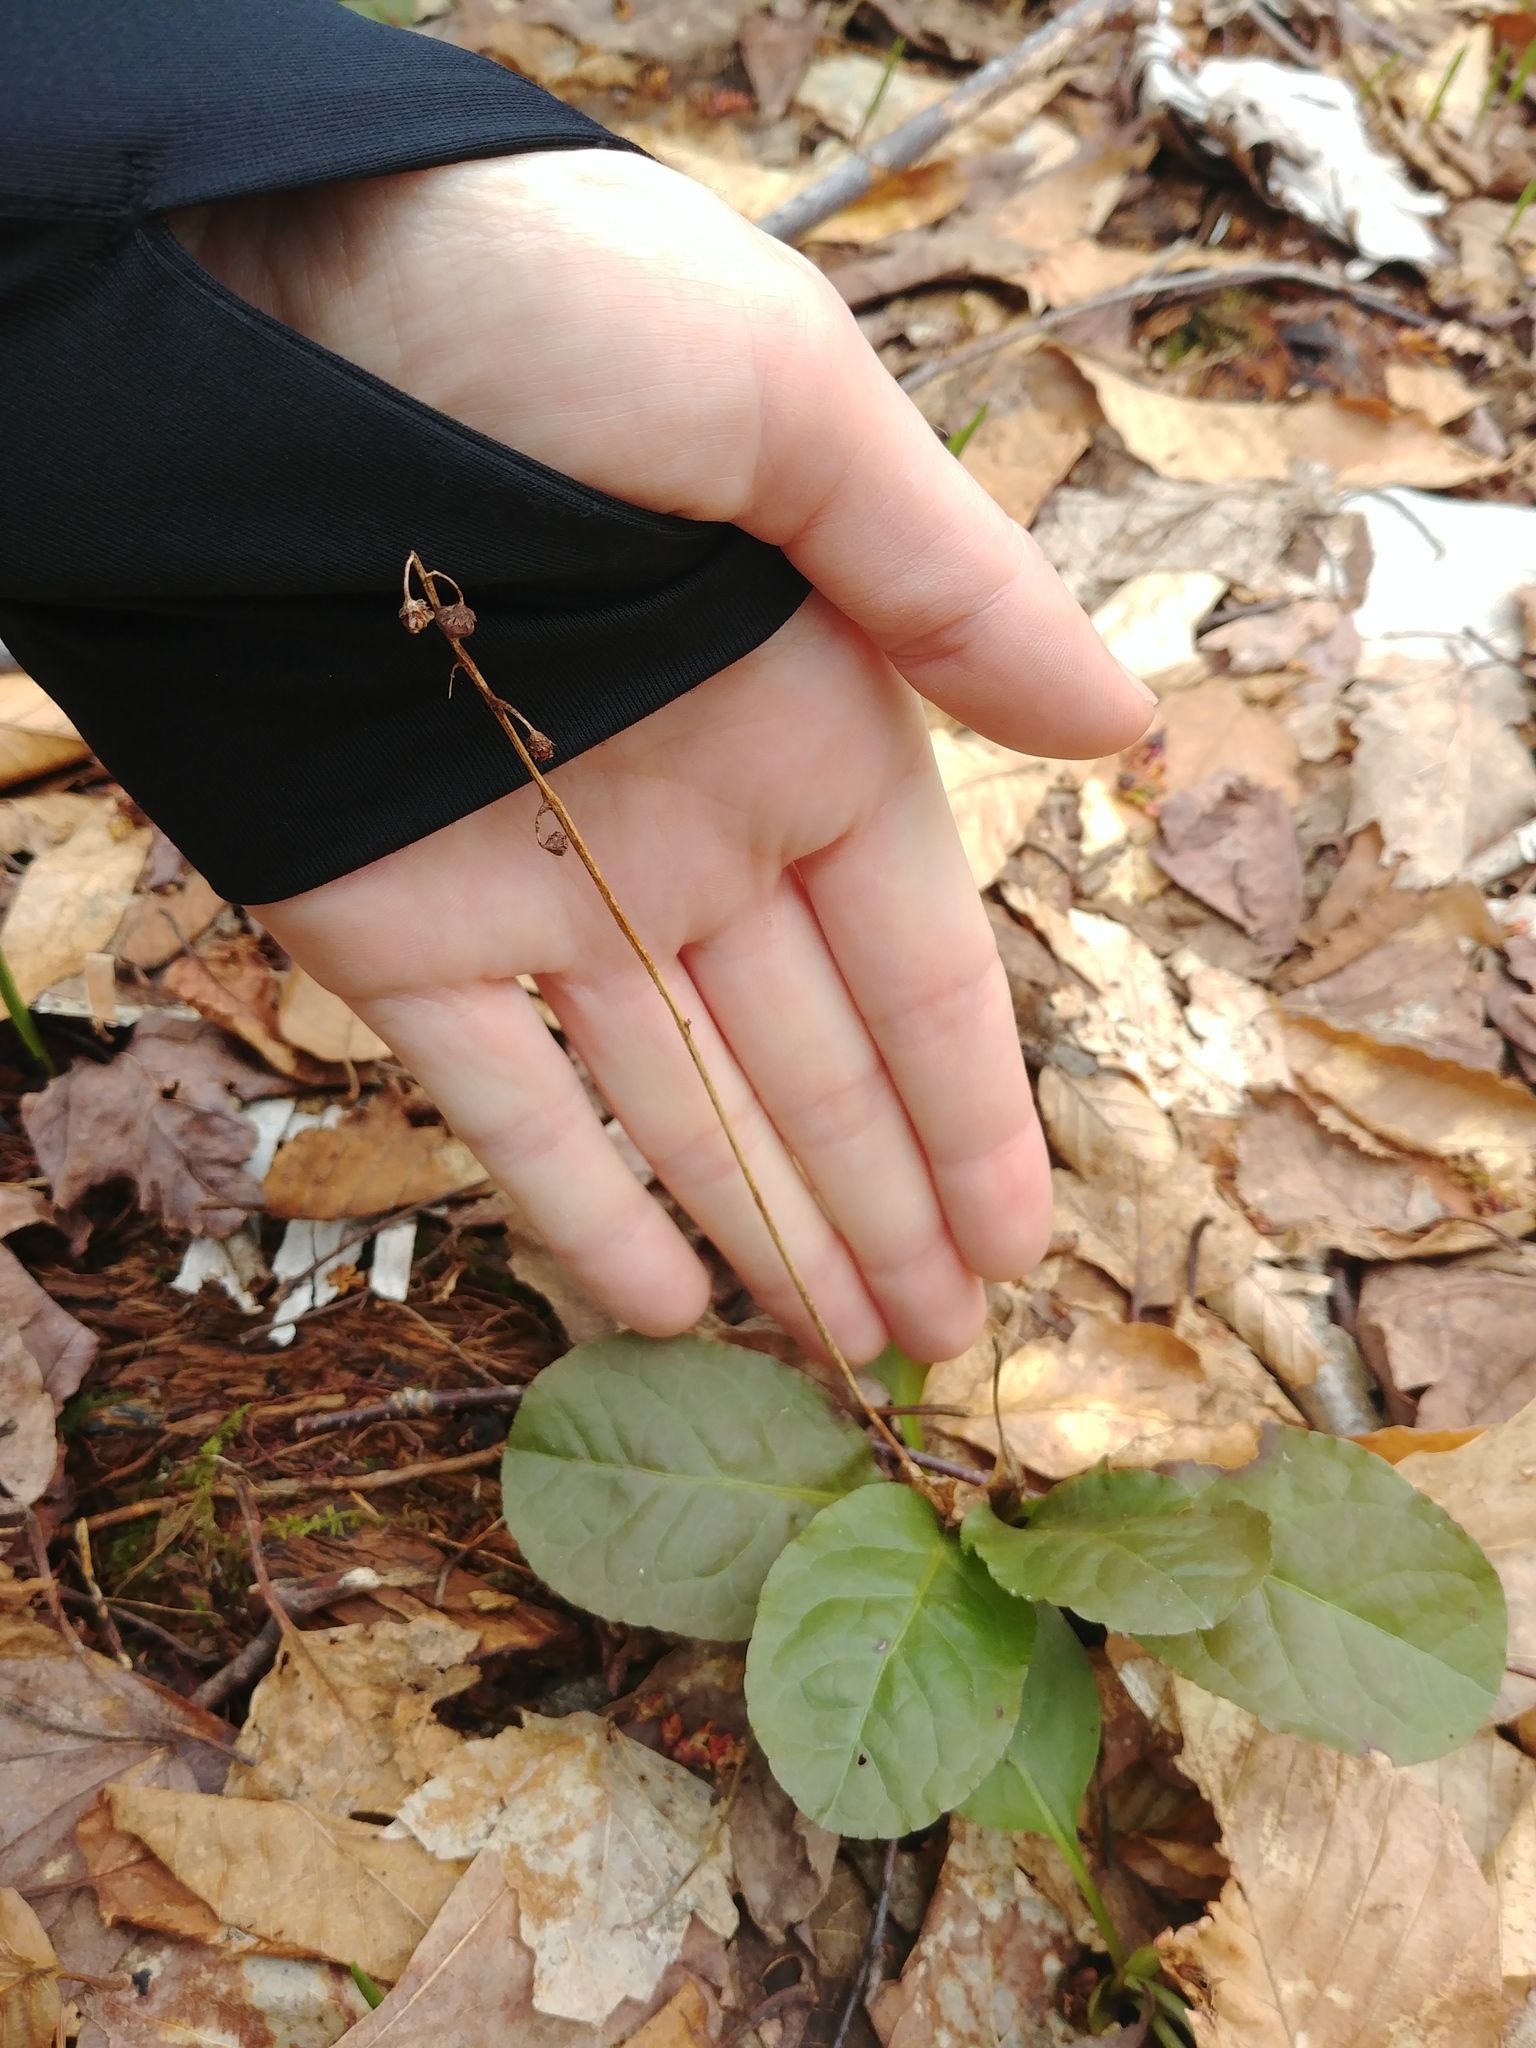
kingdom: Plantae
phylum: Tracheophyta
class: Magnoliopsida
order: Ericales
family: Ericaceae
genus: Pyrola
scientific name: Pyrola elliptica
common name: Shinleaf
